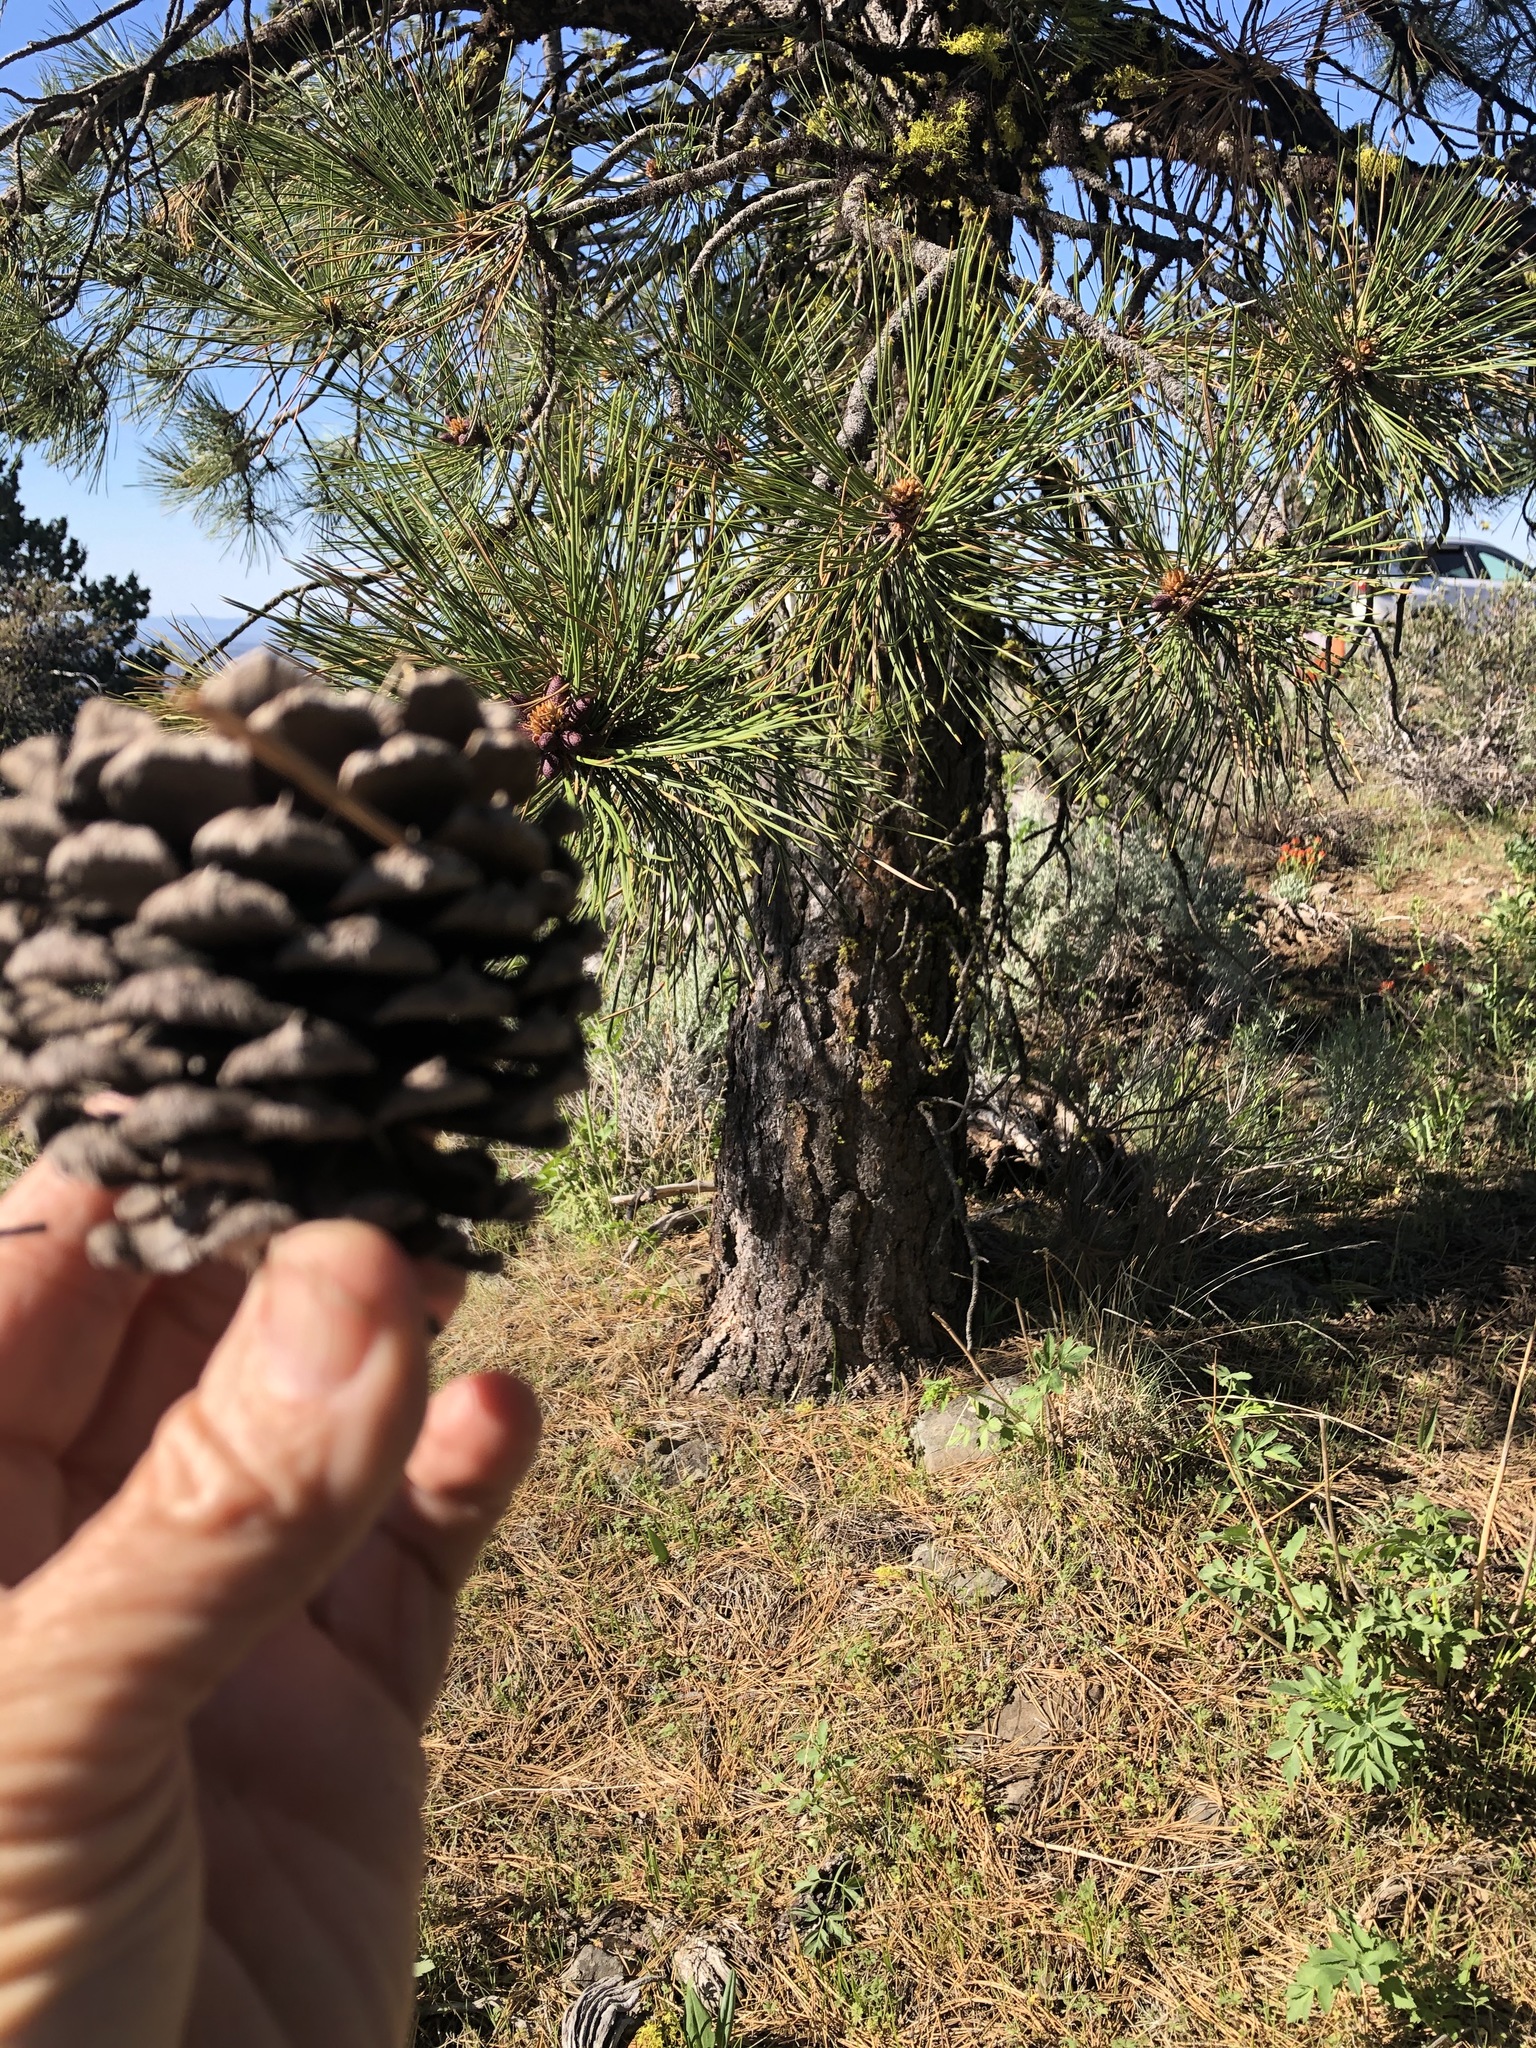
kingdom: Plantae
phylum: Tracheophyta
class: Pinopsida
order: Pinales
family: Pinaceae
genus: Pinus
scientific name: Pinus ponderosa
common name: Western yellow-pine
